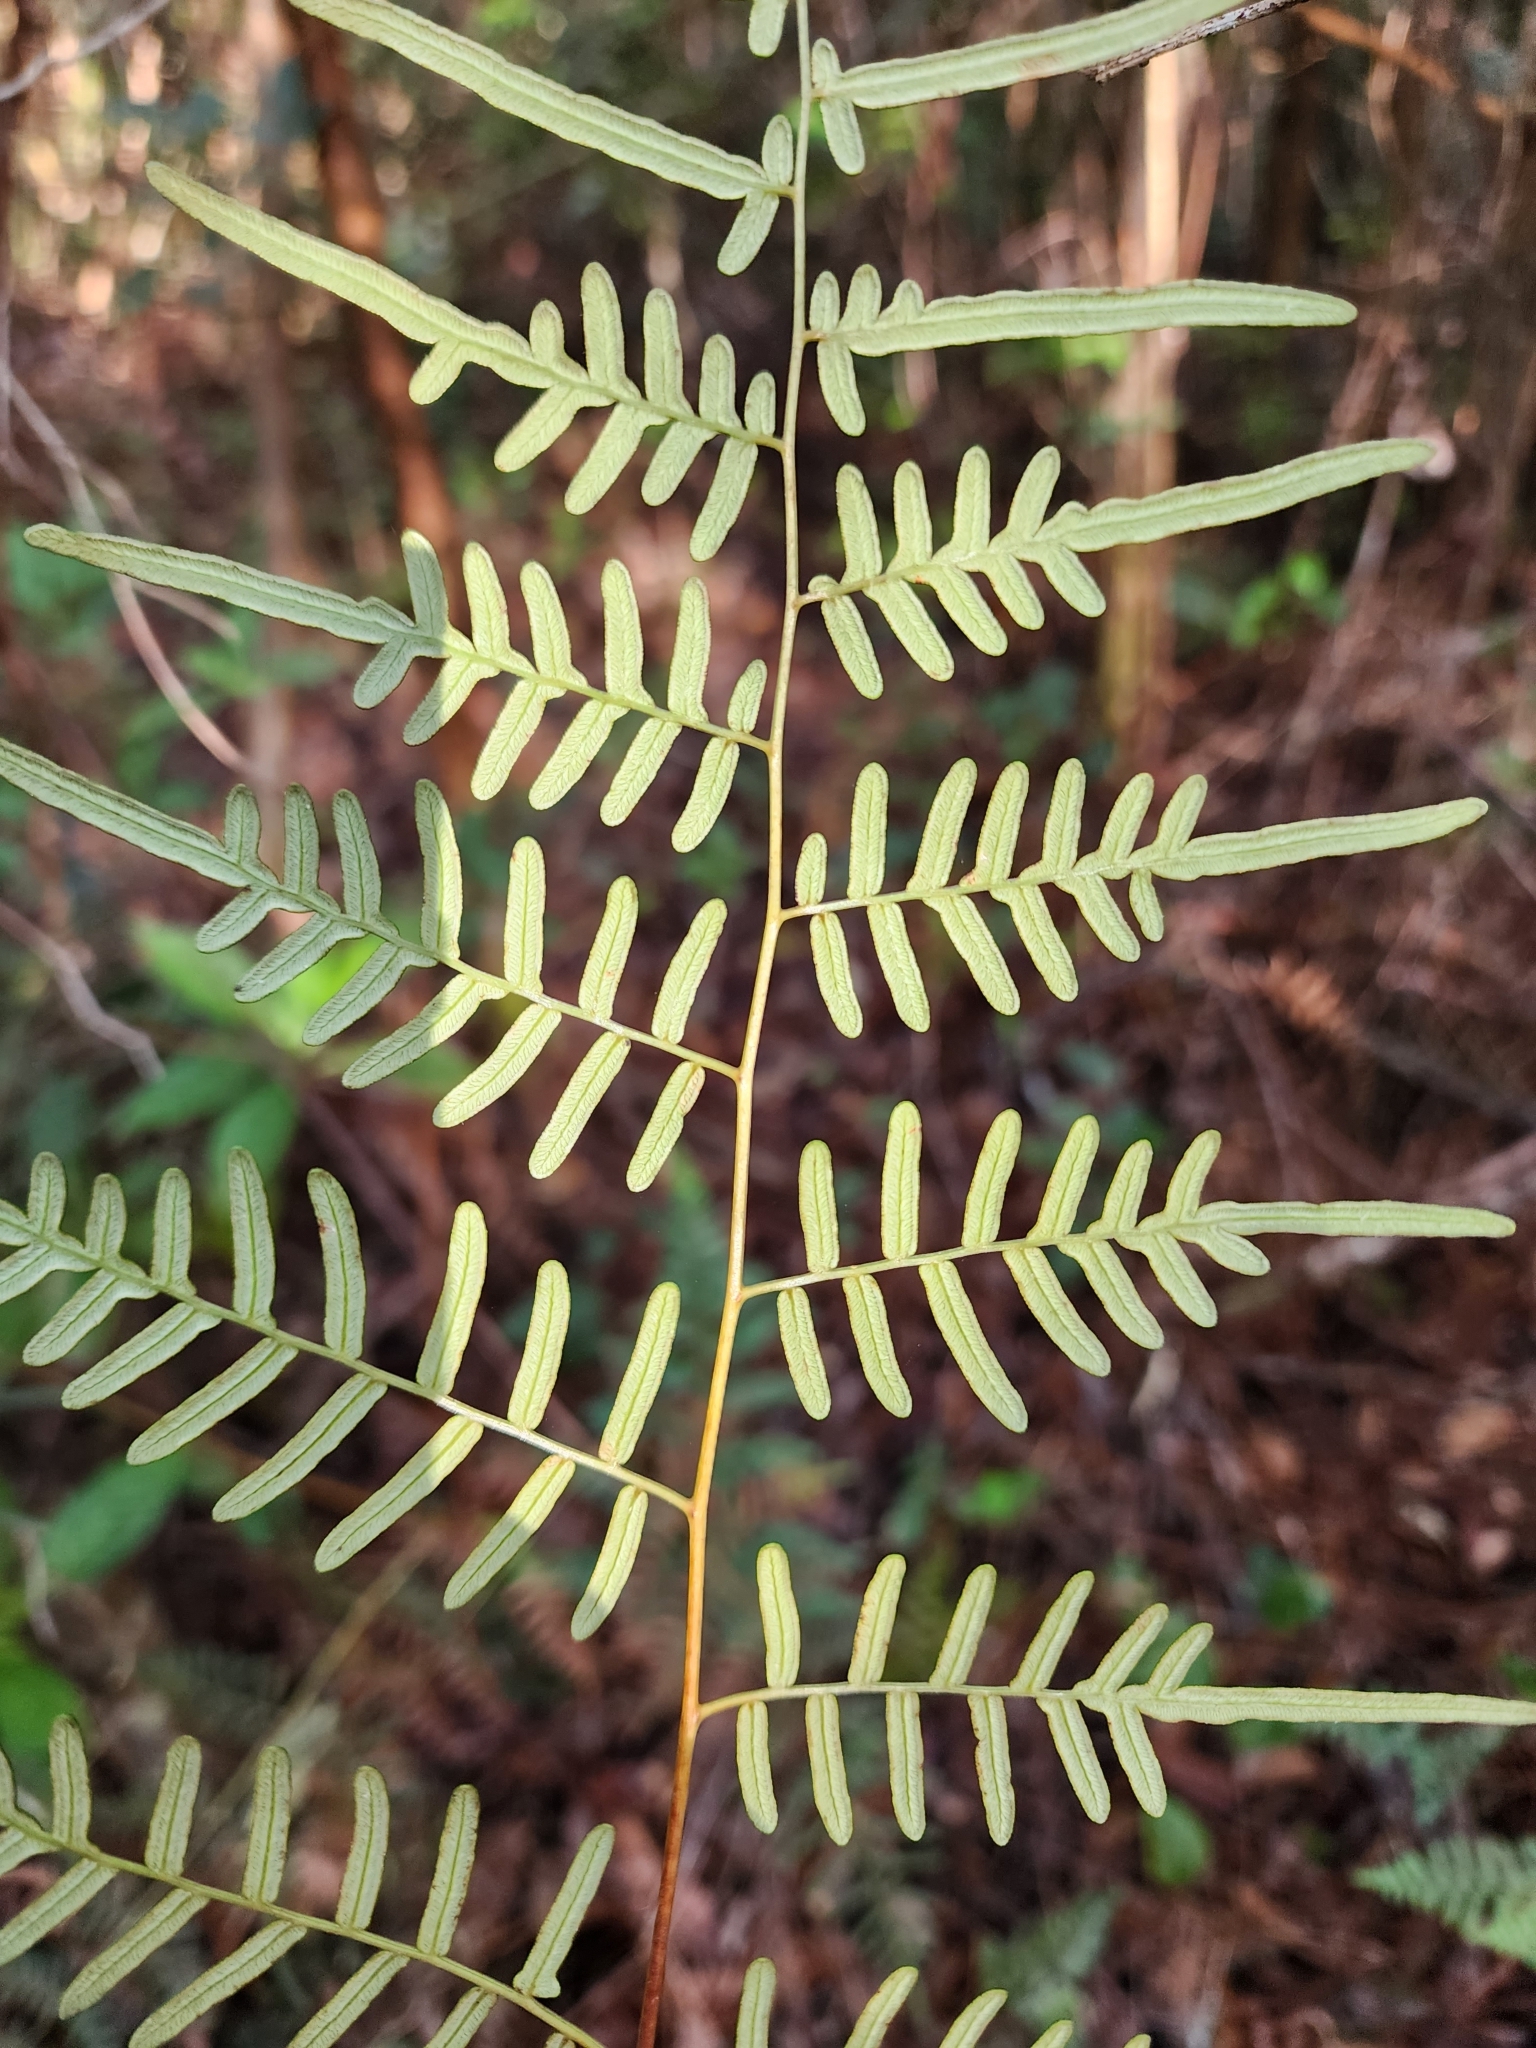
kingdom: Plantae
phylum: Tracheophyta
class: Polypodiopsida
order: Polypodiales
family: Dennstaedtiaceae
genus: Pteridium
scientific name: Pteridium caudatum
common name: Southern bracken fern
